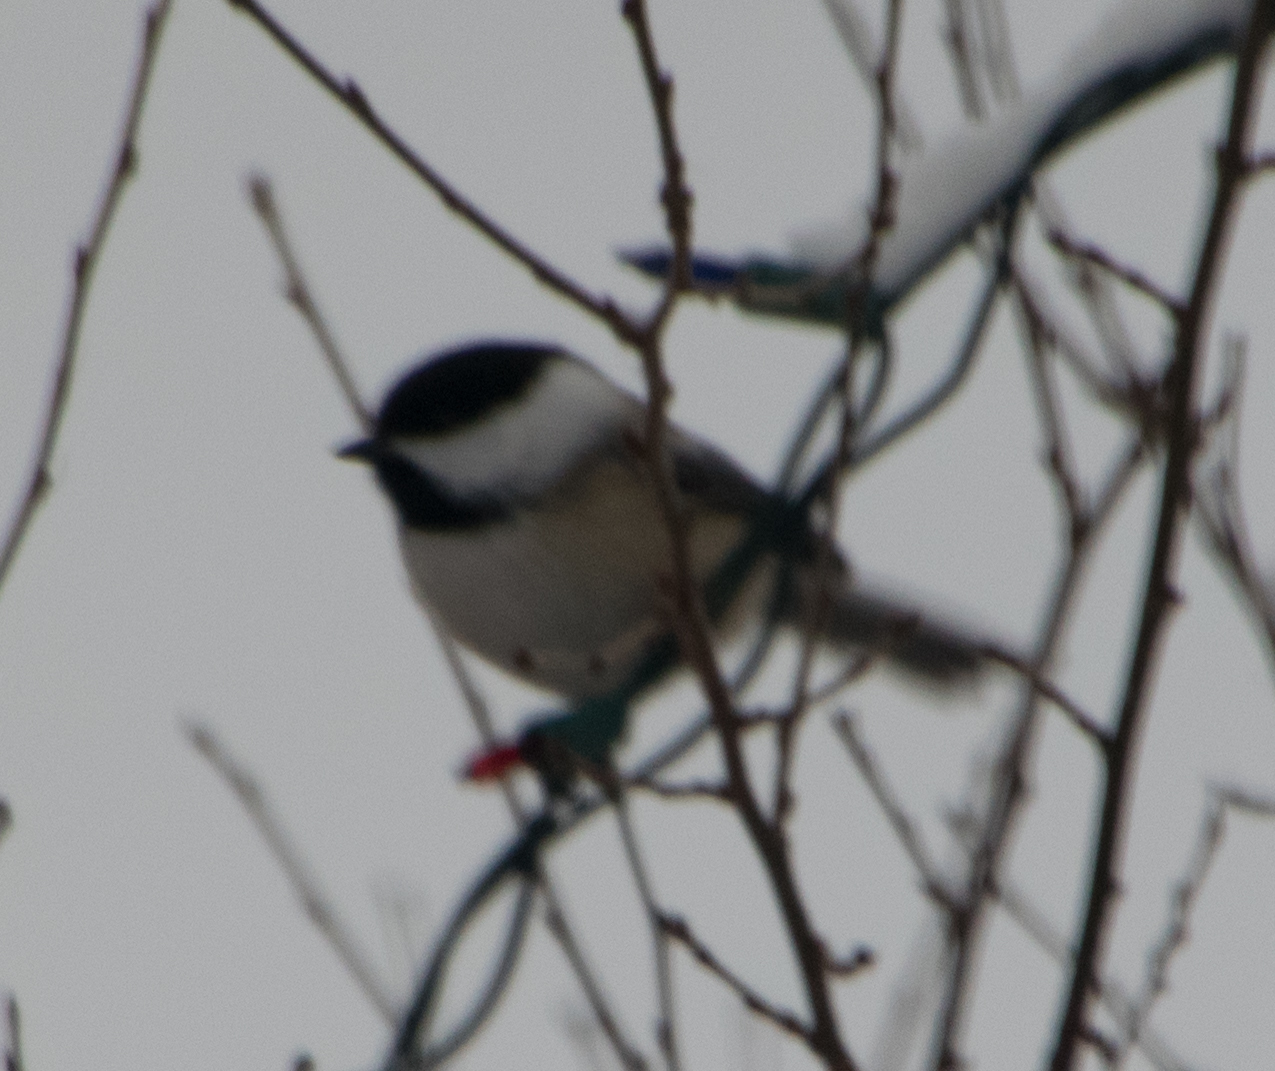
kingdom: Animalia
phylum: Chordata
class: Aves
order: Passeriformes
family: Paridae
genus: Poecile
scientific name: Poecile atricapillus
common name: Black-capped chickadee
